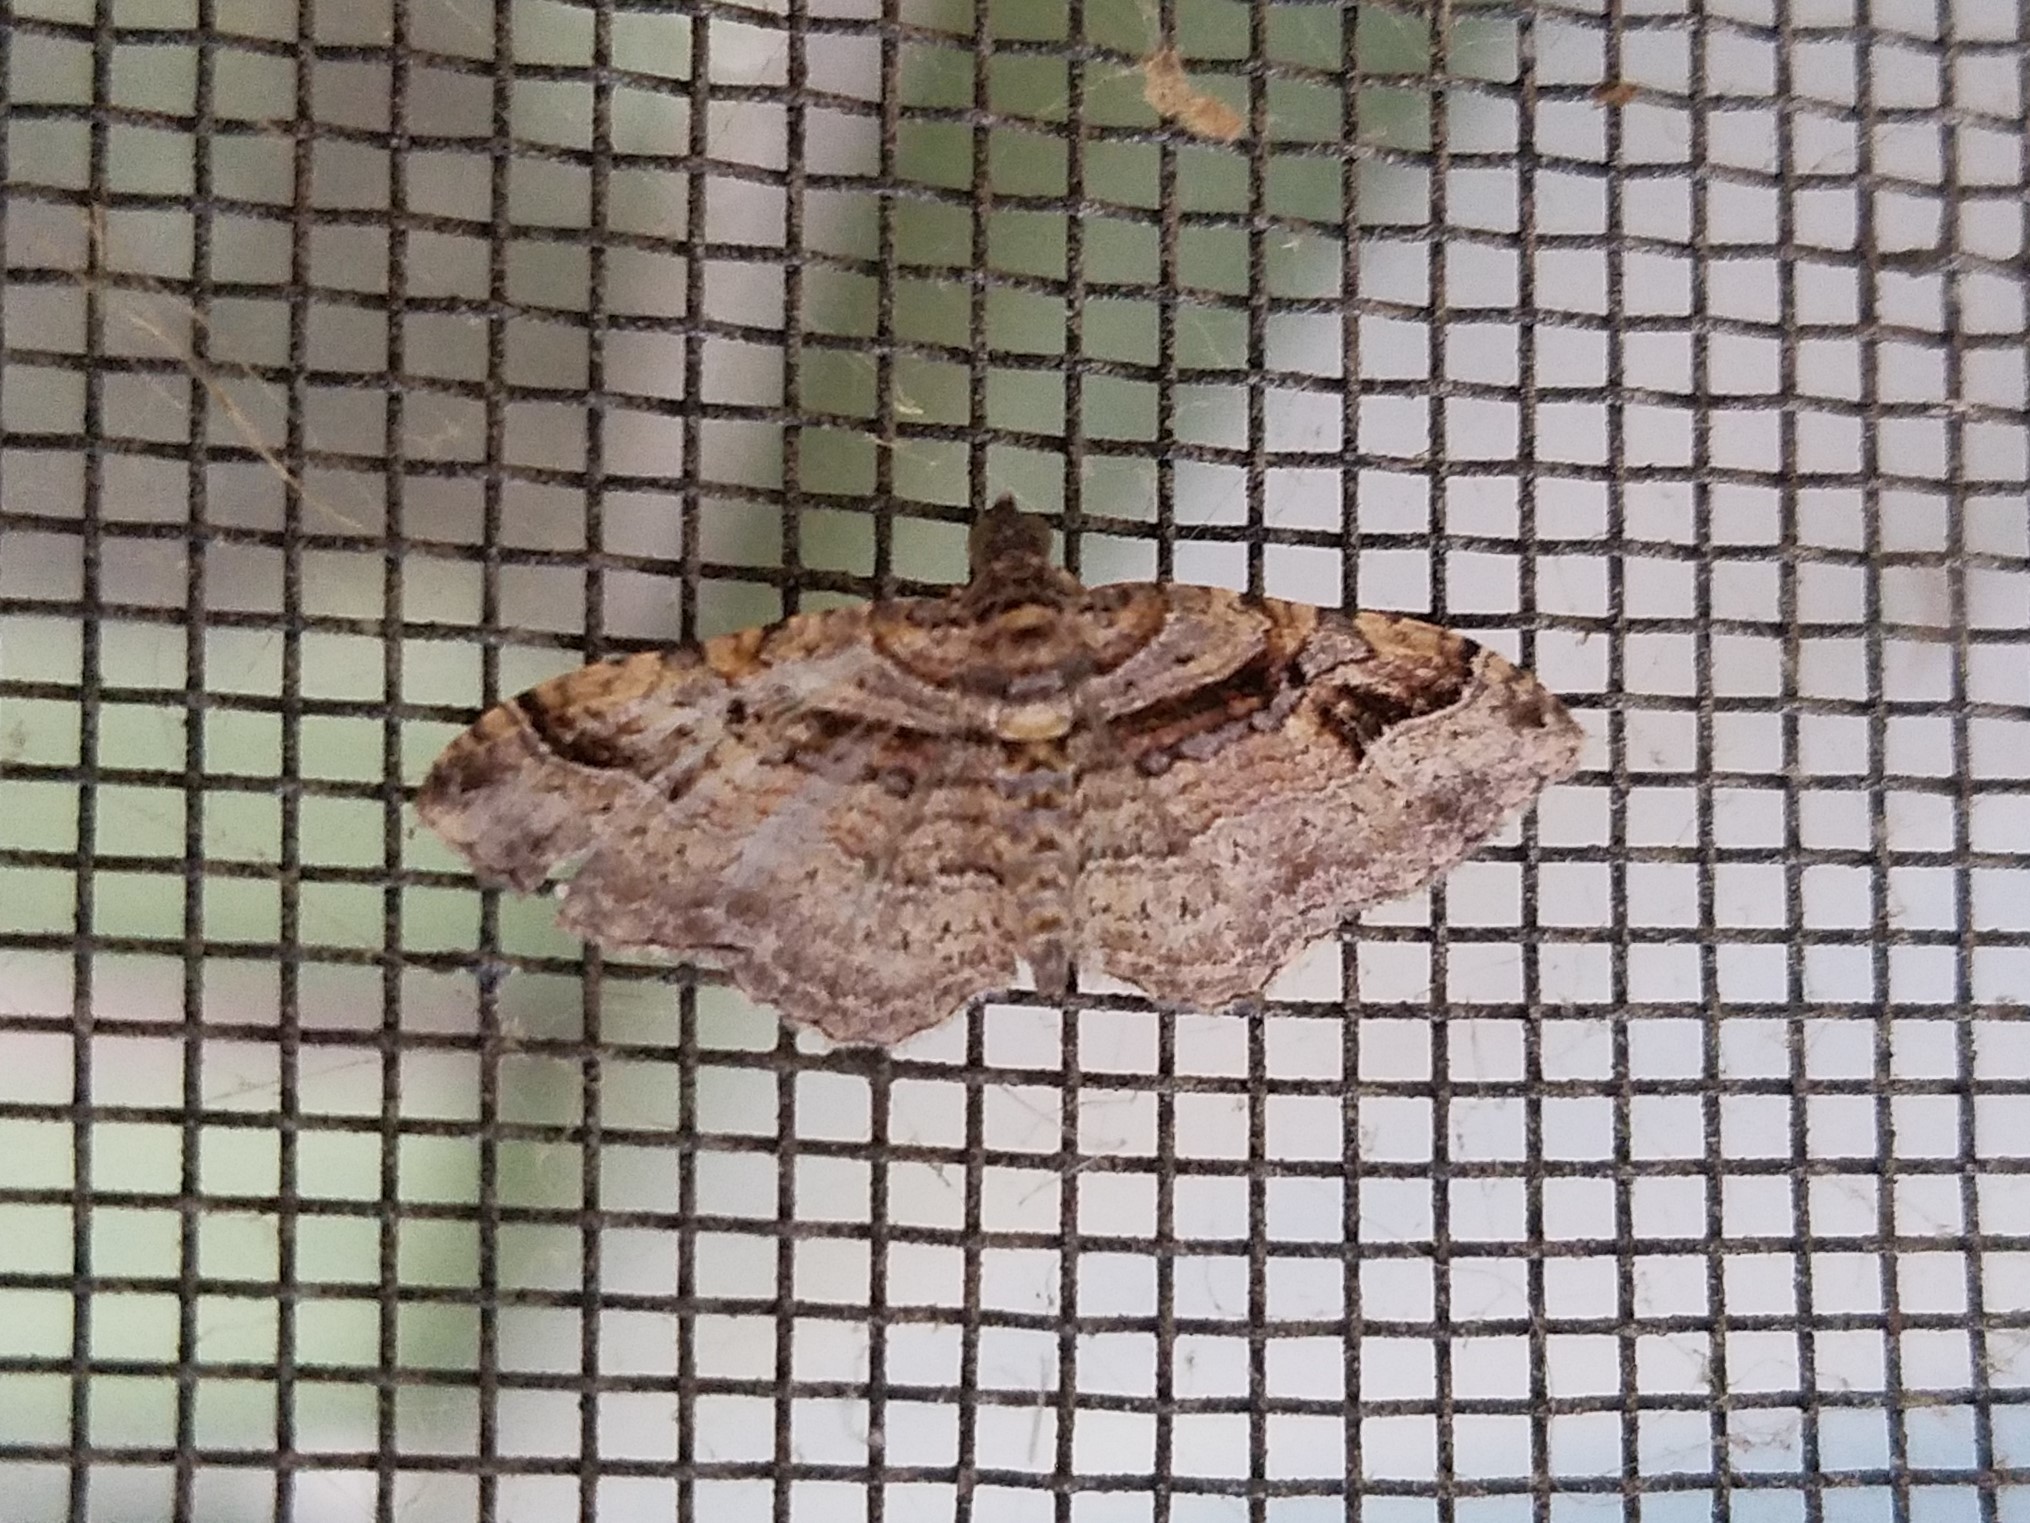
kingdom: Animalia
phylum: Arthropoda
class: Insecta
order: Lepidoptera
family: Geometridae
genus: Costaconvexa
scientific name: Costaconvexa centrostrigaria
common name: Bent-line carpet
